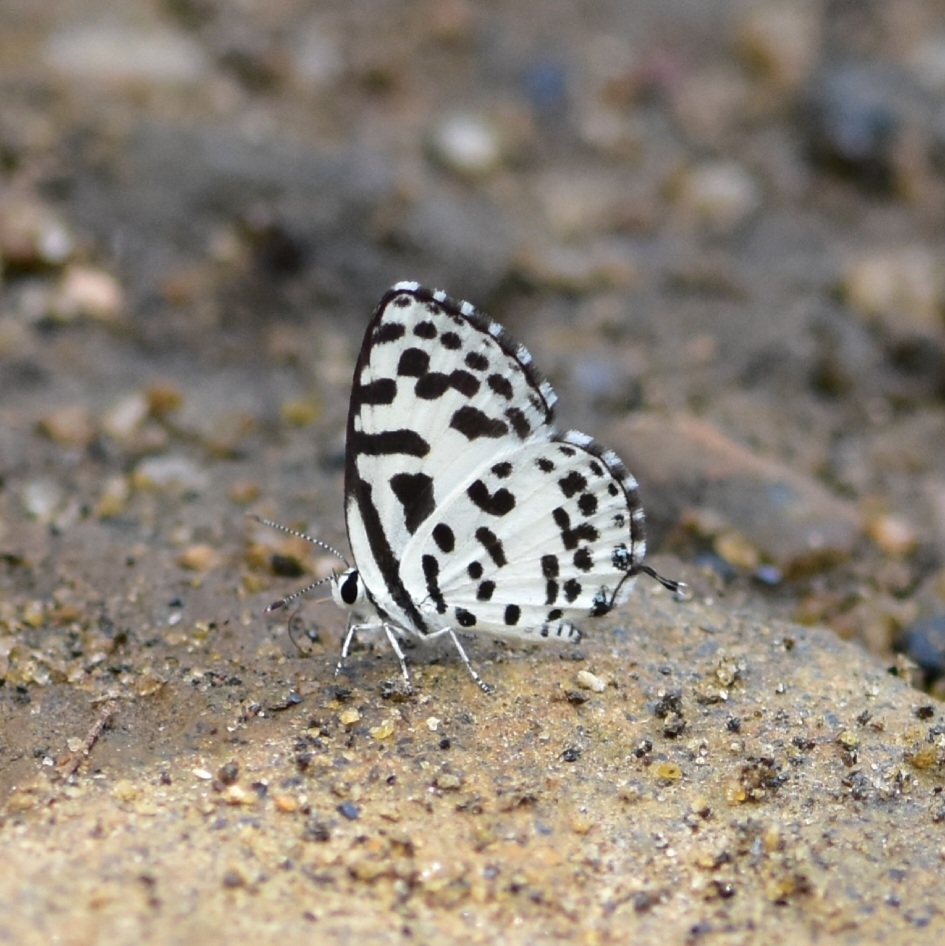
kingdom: Animalia
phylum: Arthropoda
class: Insecta
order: Lepidoptera
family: Lycaenidae
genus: Castalius
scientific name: Castalius rosimon
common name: Common pierrot
